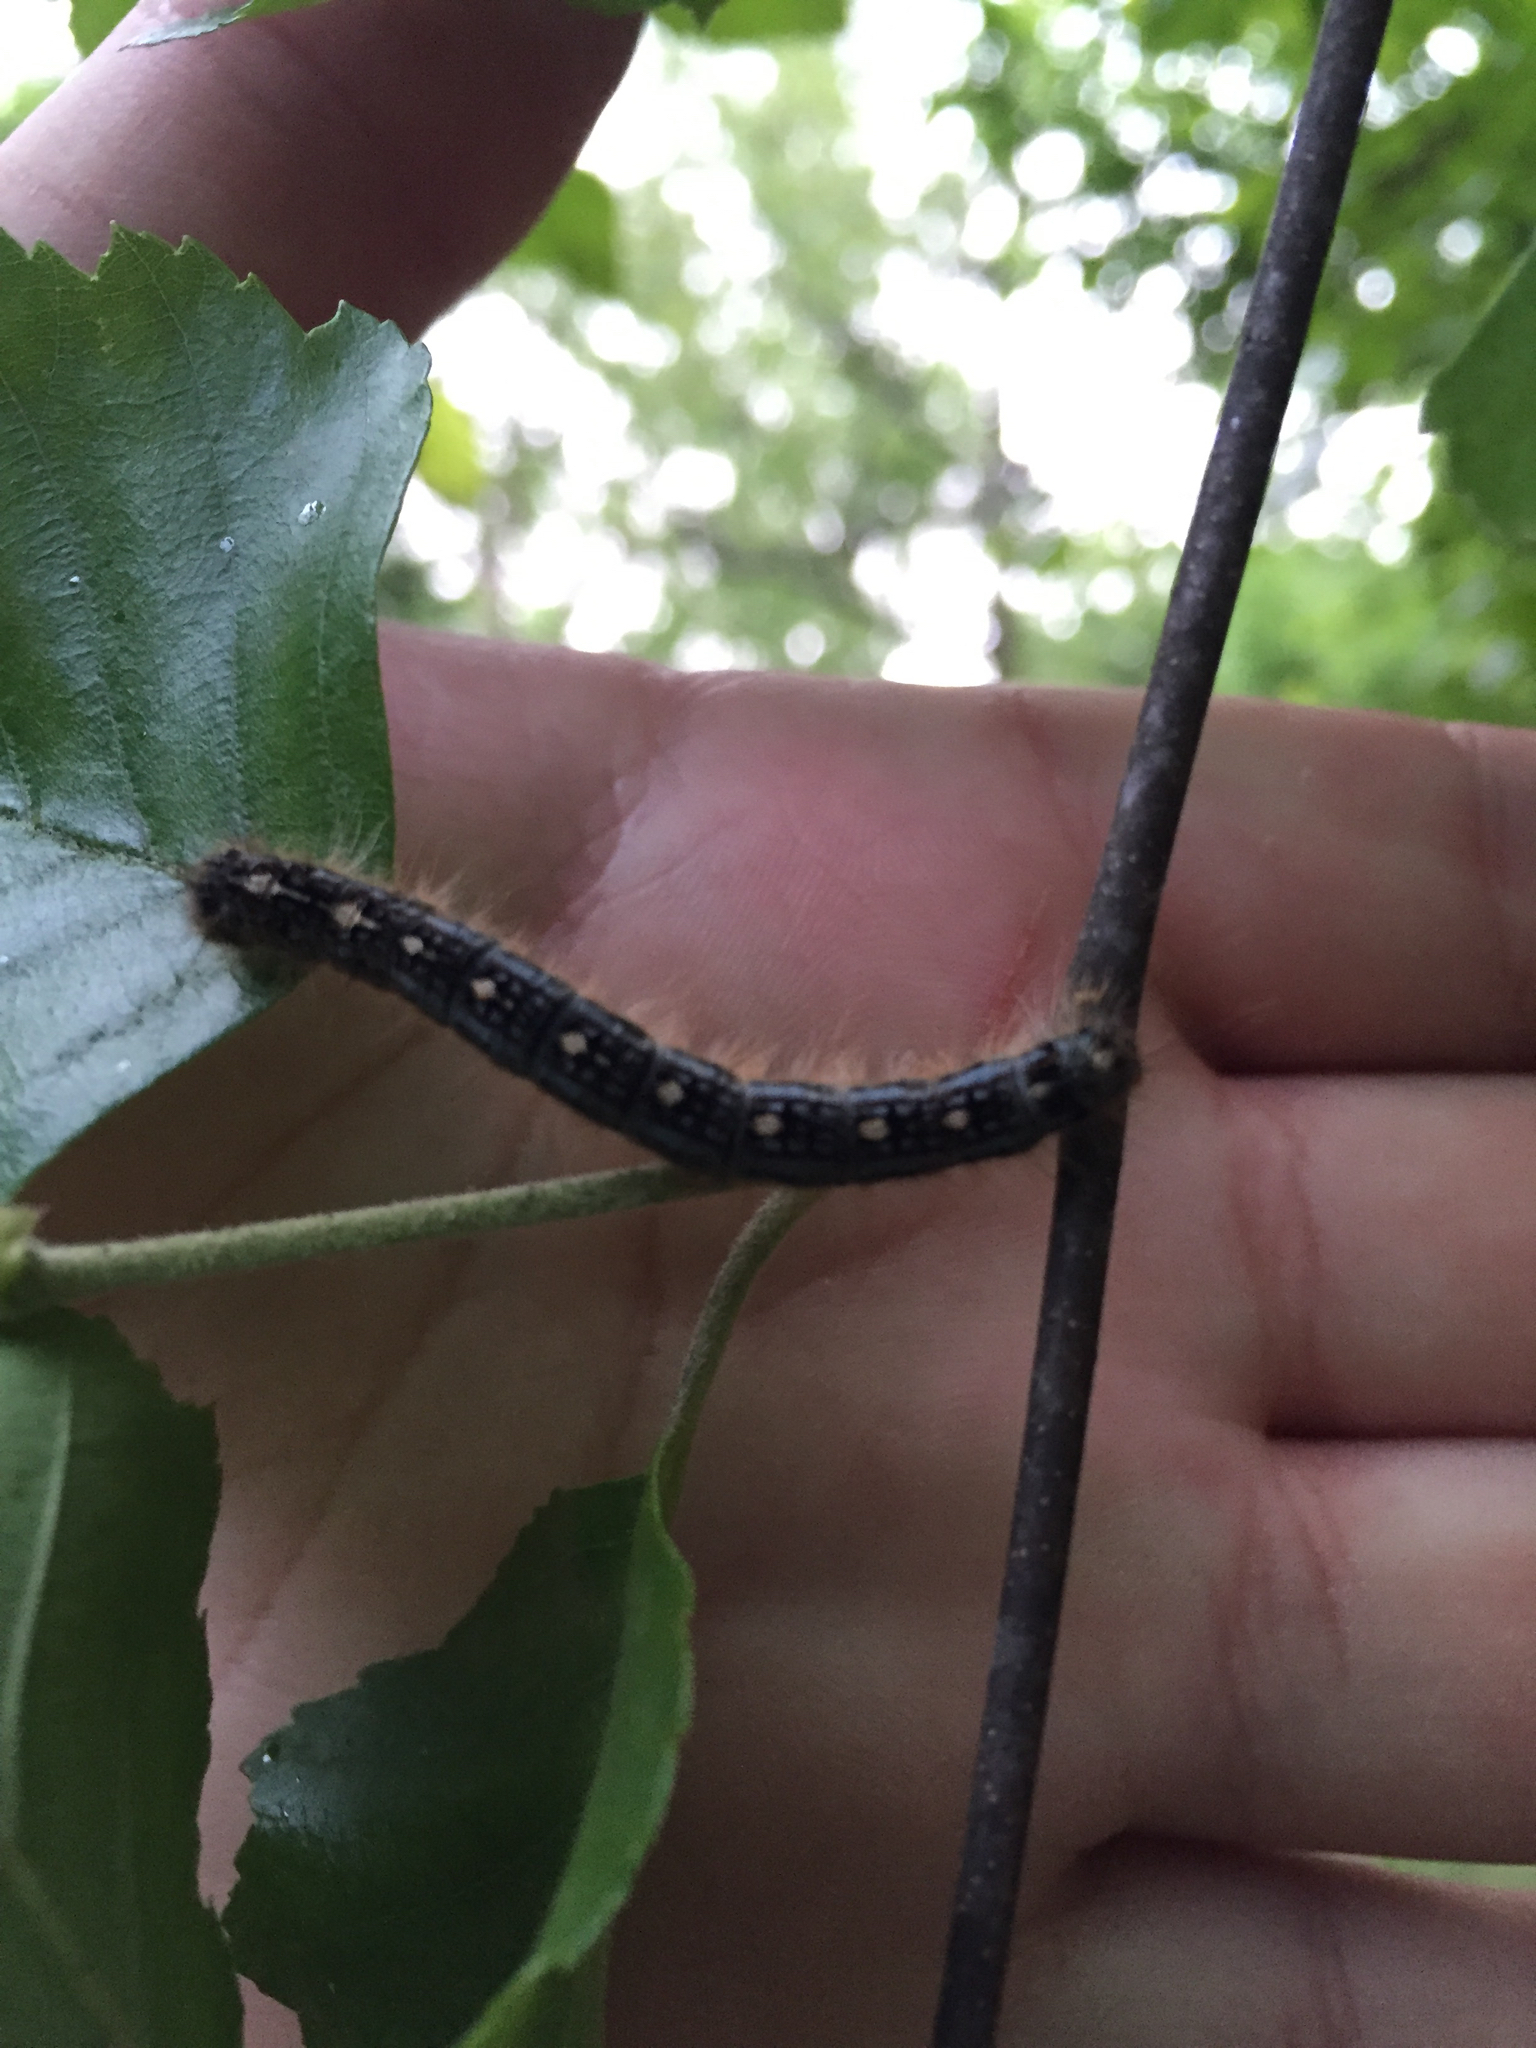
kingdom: Animalia
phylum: Arthropoda
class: Insecta
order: Lepidoptera
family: Lasiocampidae
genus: Malacosoma
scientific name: Malacosoma disstria
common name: Forest tent caterpillar
